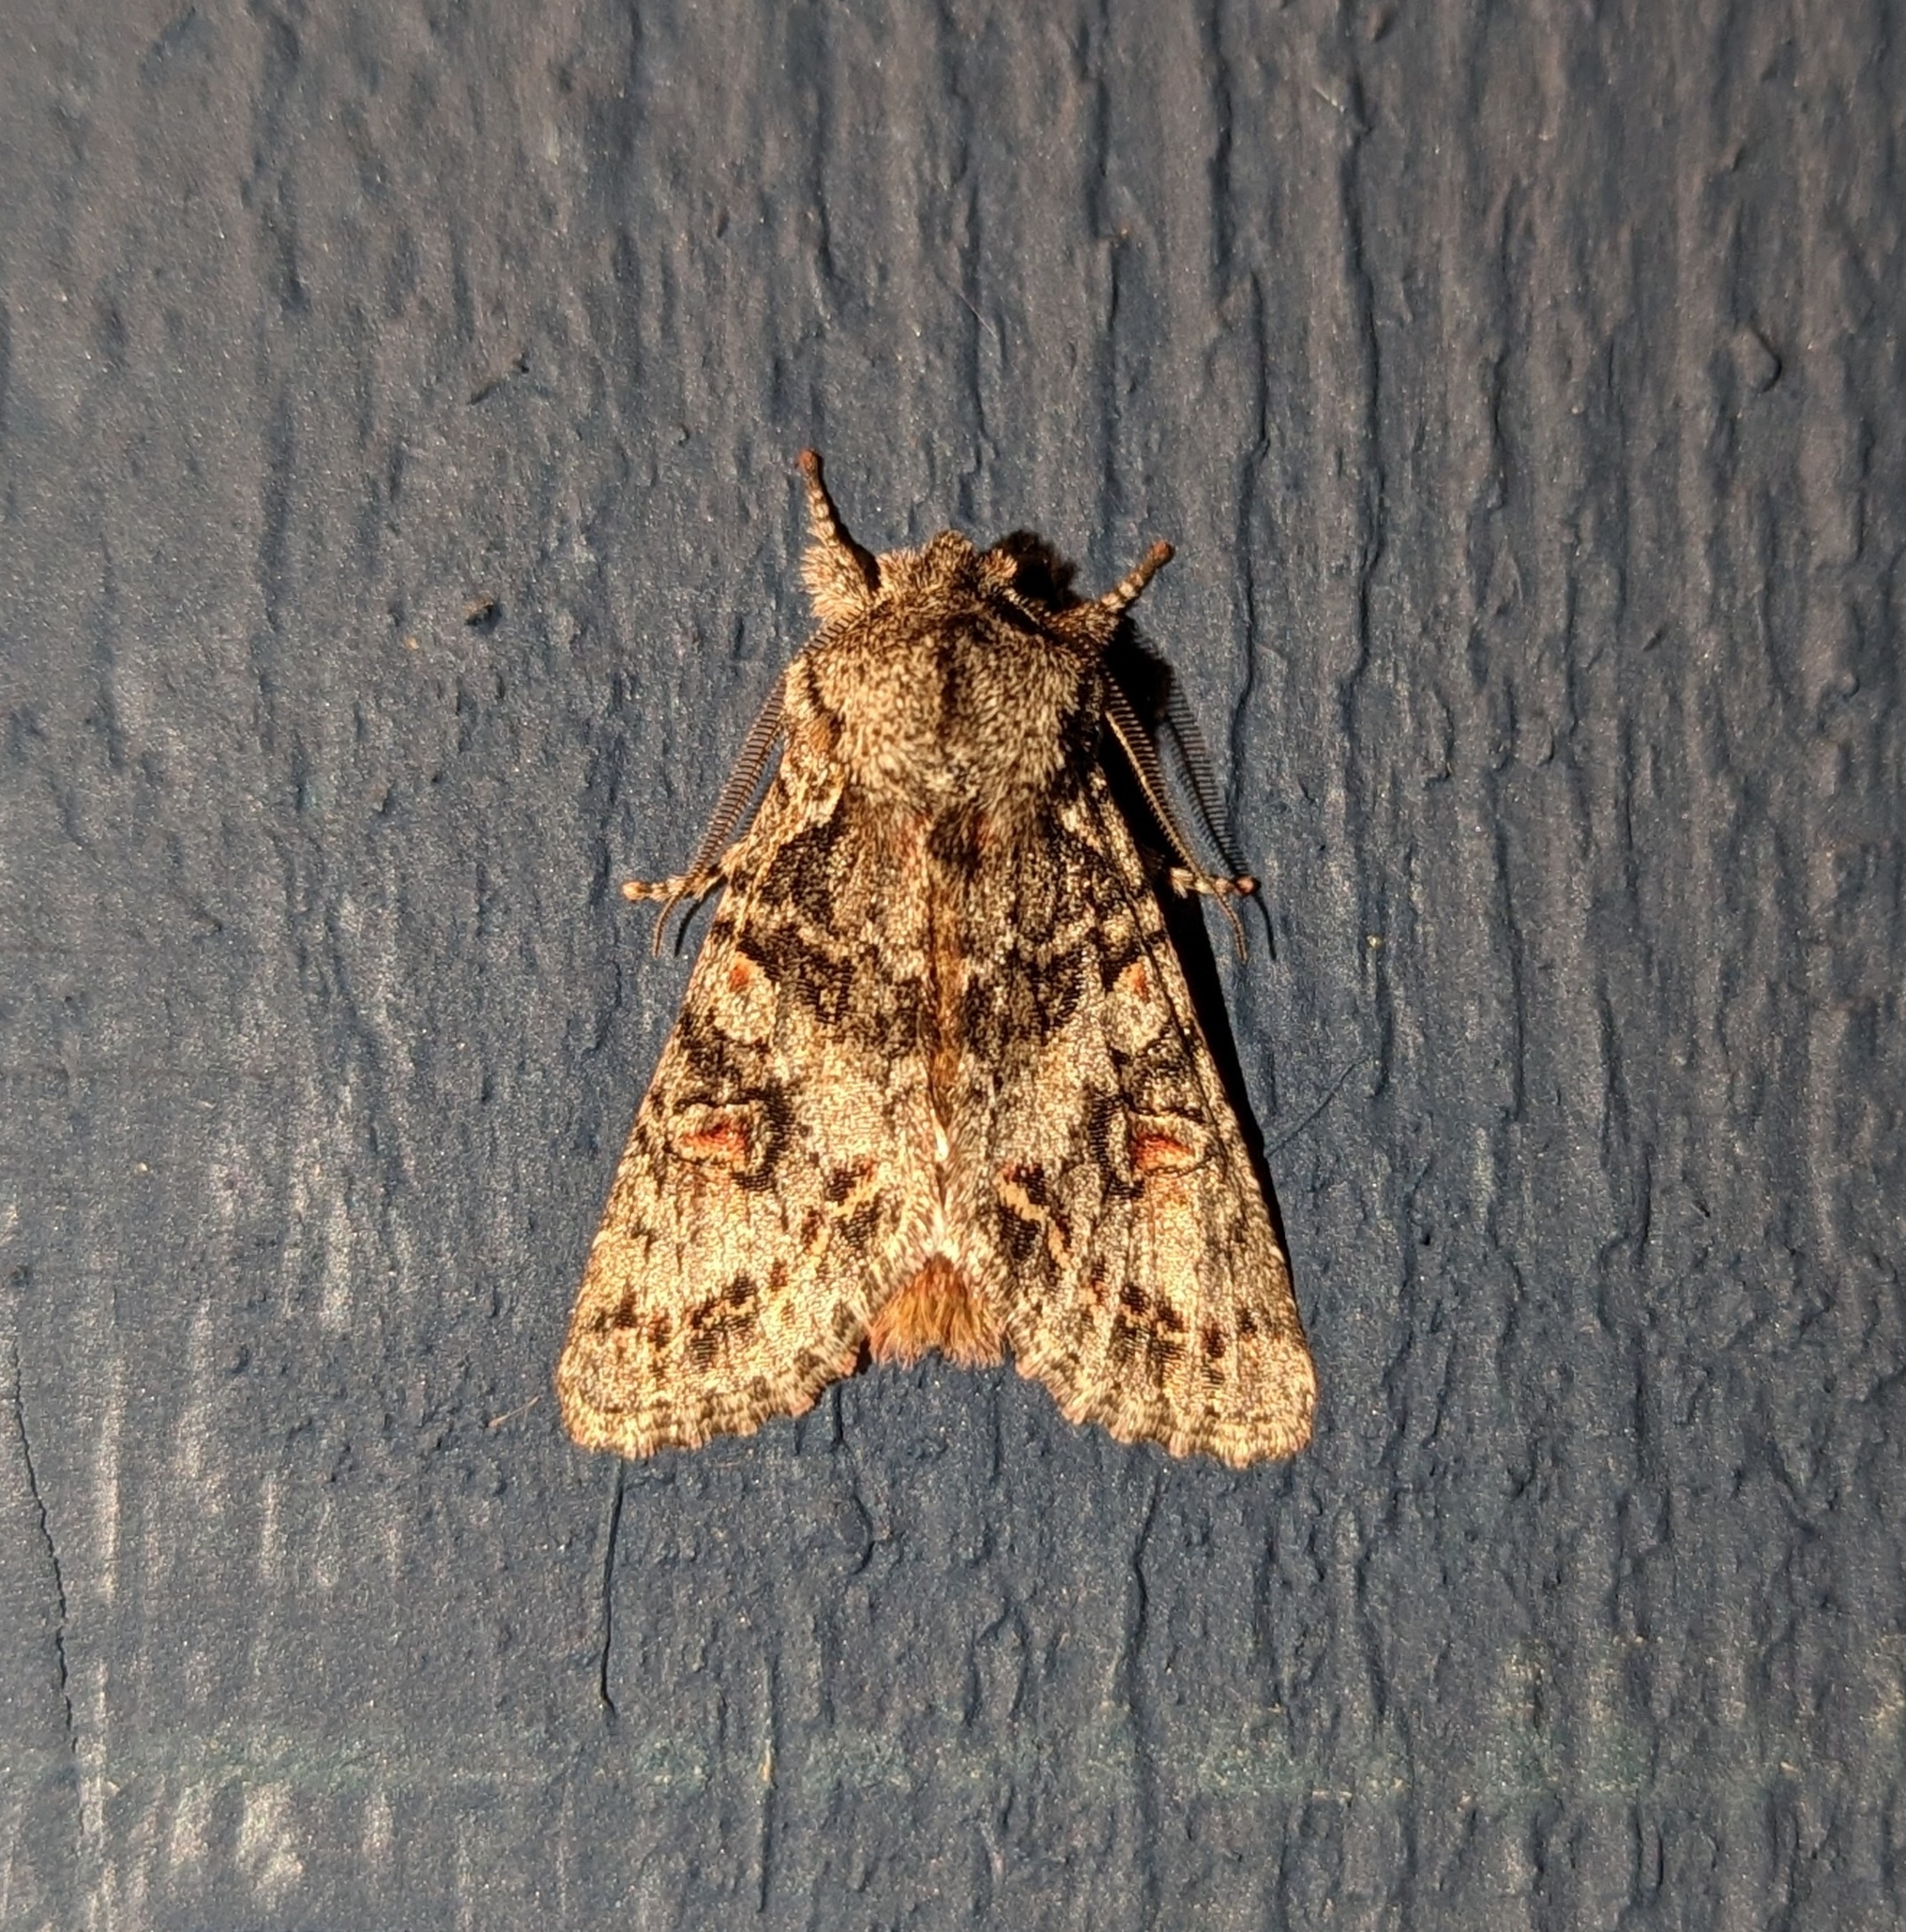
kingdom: Animalia
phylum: Arthropoda
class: Insecta
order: Lepidoptera
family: Noctuidae
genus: Egira
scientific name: Egira hiemalis
